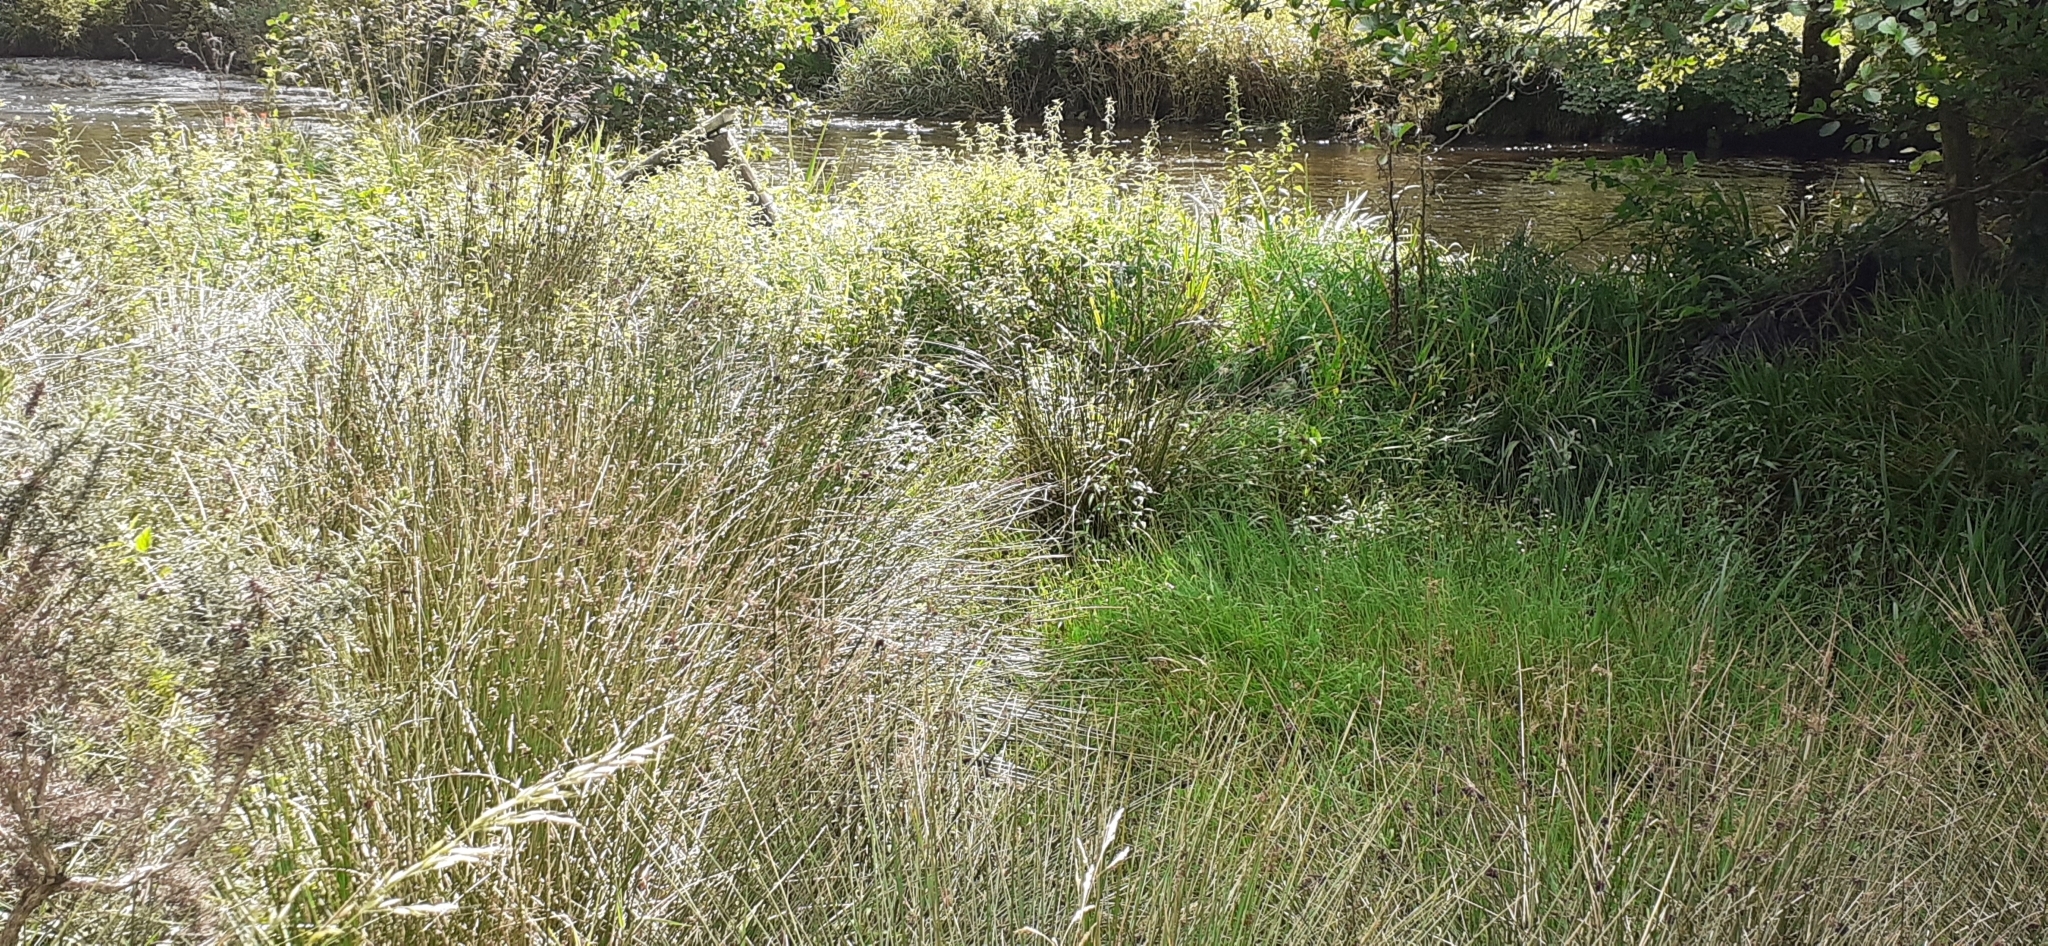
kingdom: Plantae
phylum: Tracheophyta
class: Liliopsida
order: Asparagales
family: Iridaceae
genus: Crocosmia
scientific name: Crocosmia crocosmiiflora
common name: Montbretia
